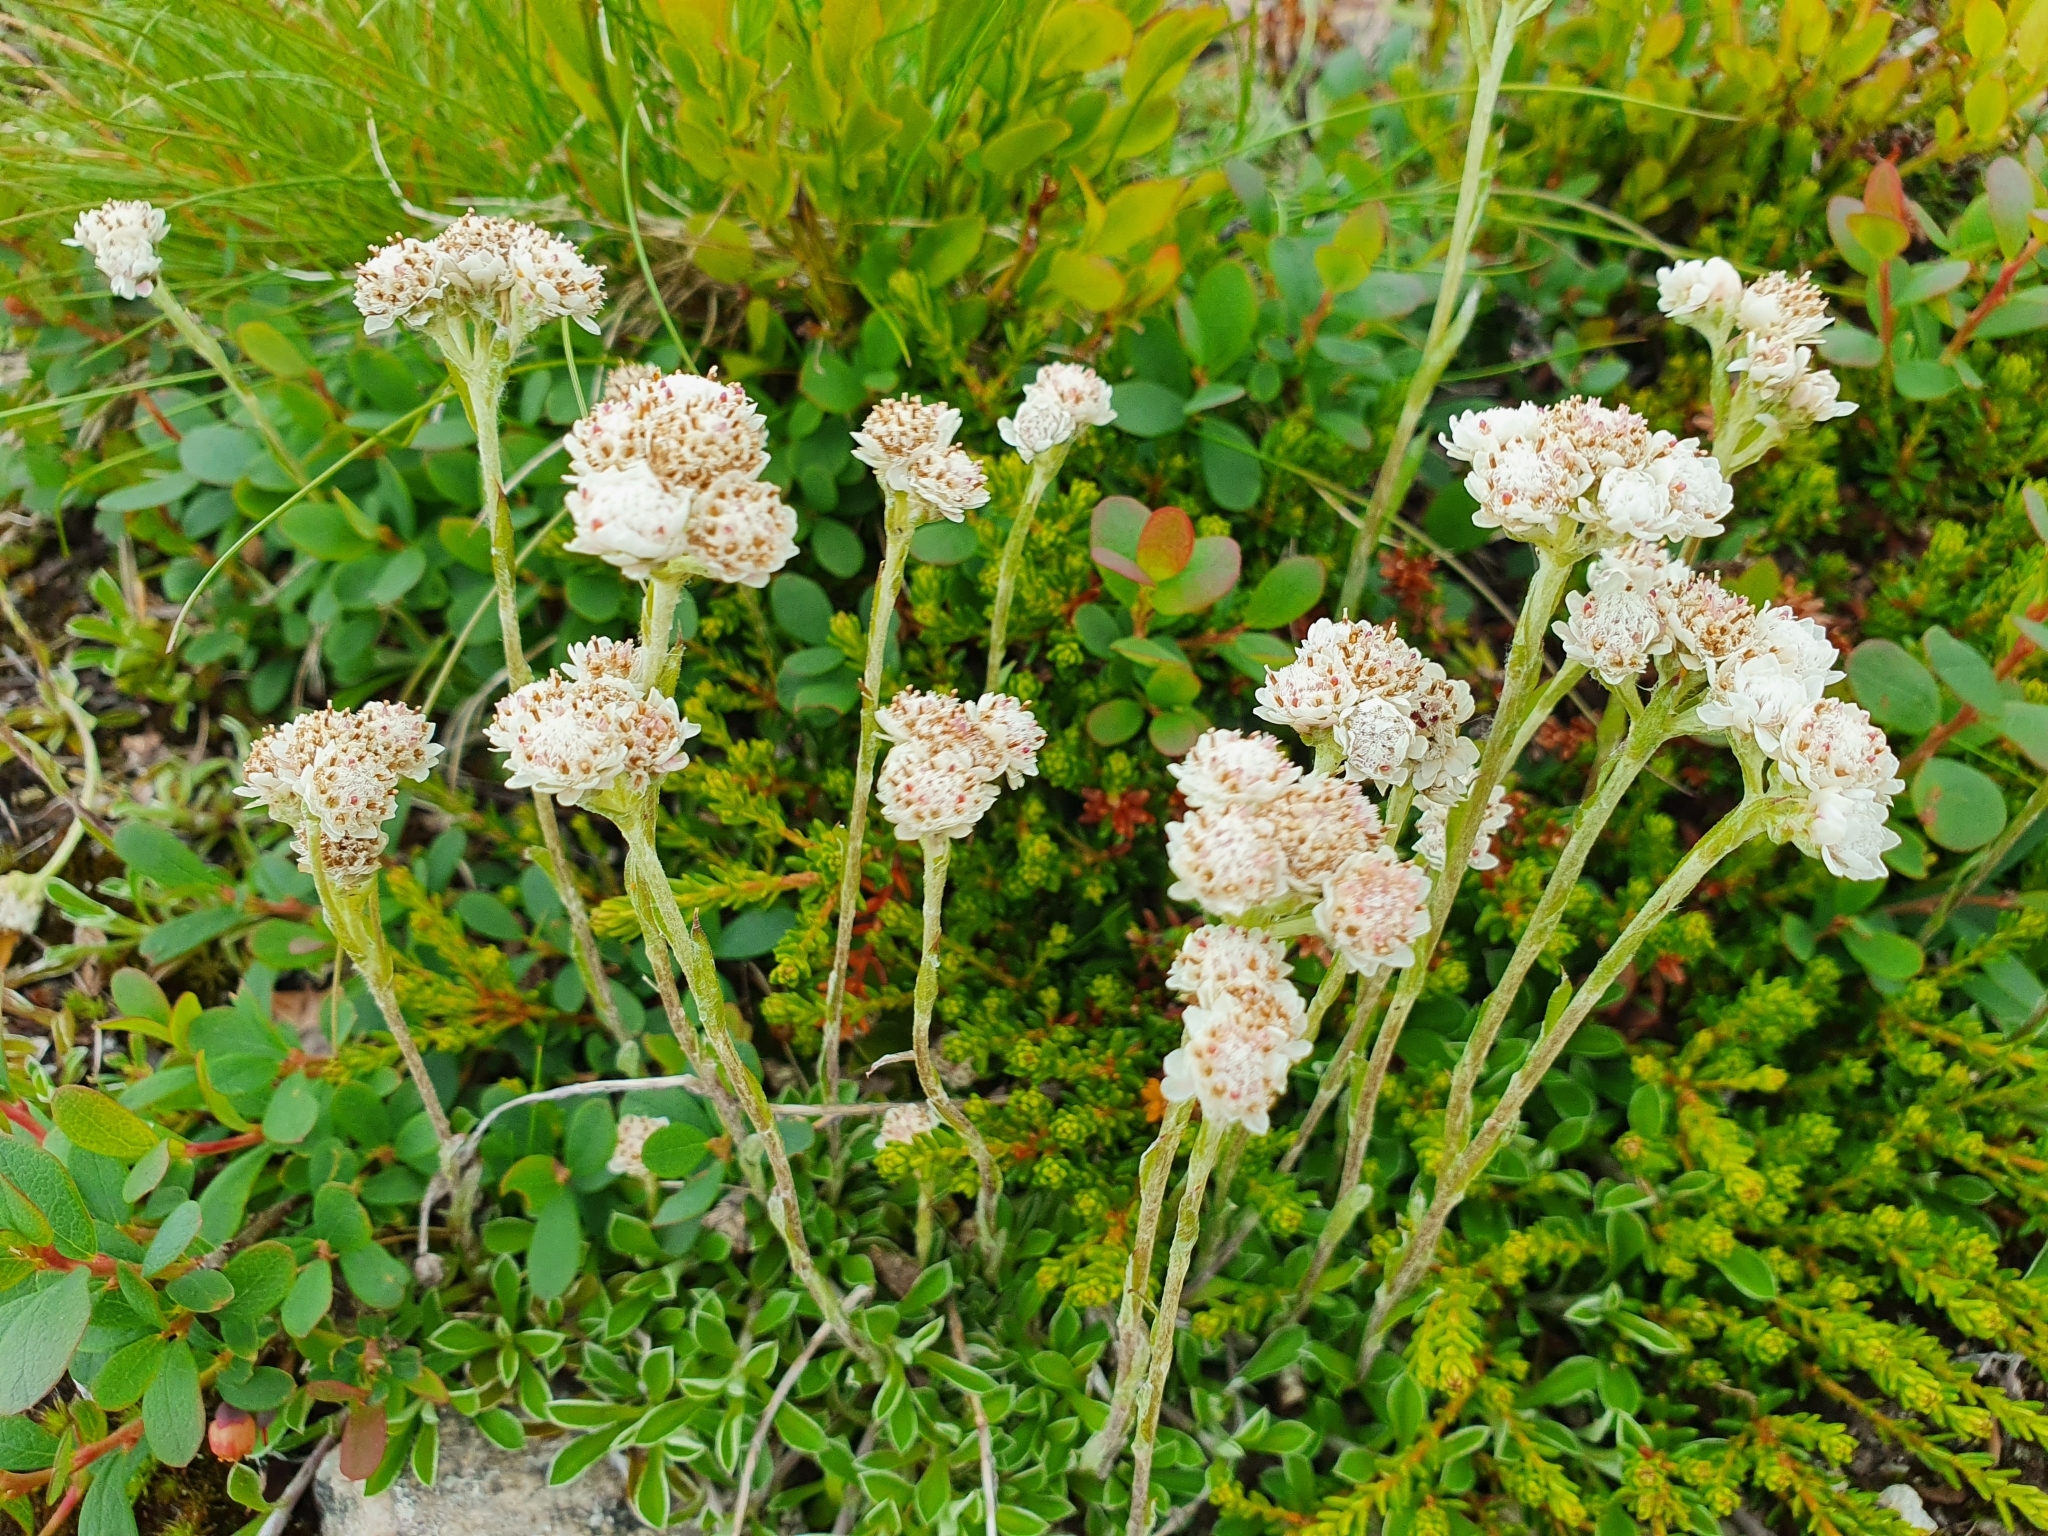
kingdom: Plantae
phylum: Tracheophyta
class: Magnoliopsida
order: Asterales
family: Asteraceae
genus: Antennaria
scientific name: Antennaria dioica
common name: Mountain everlasting
